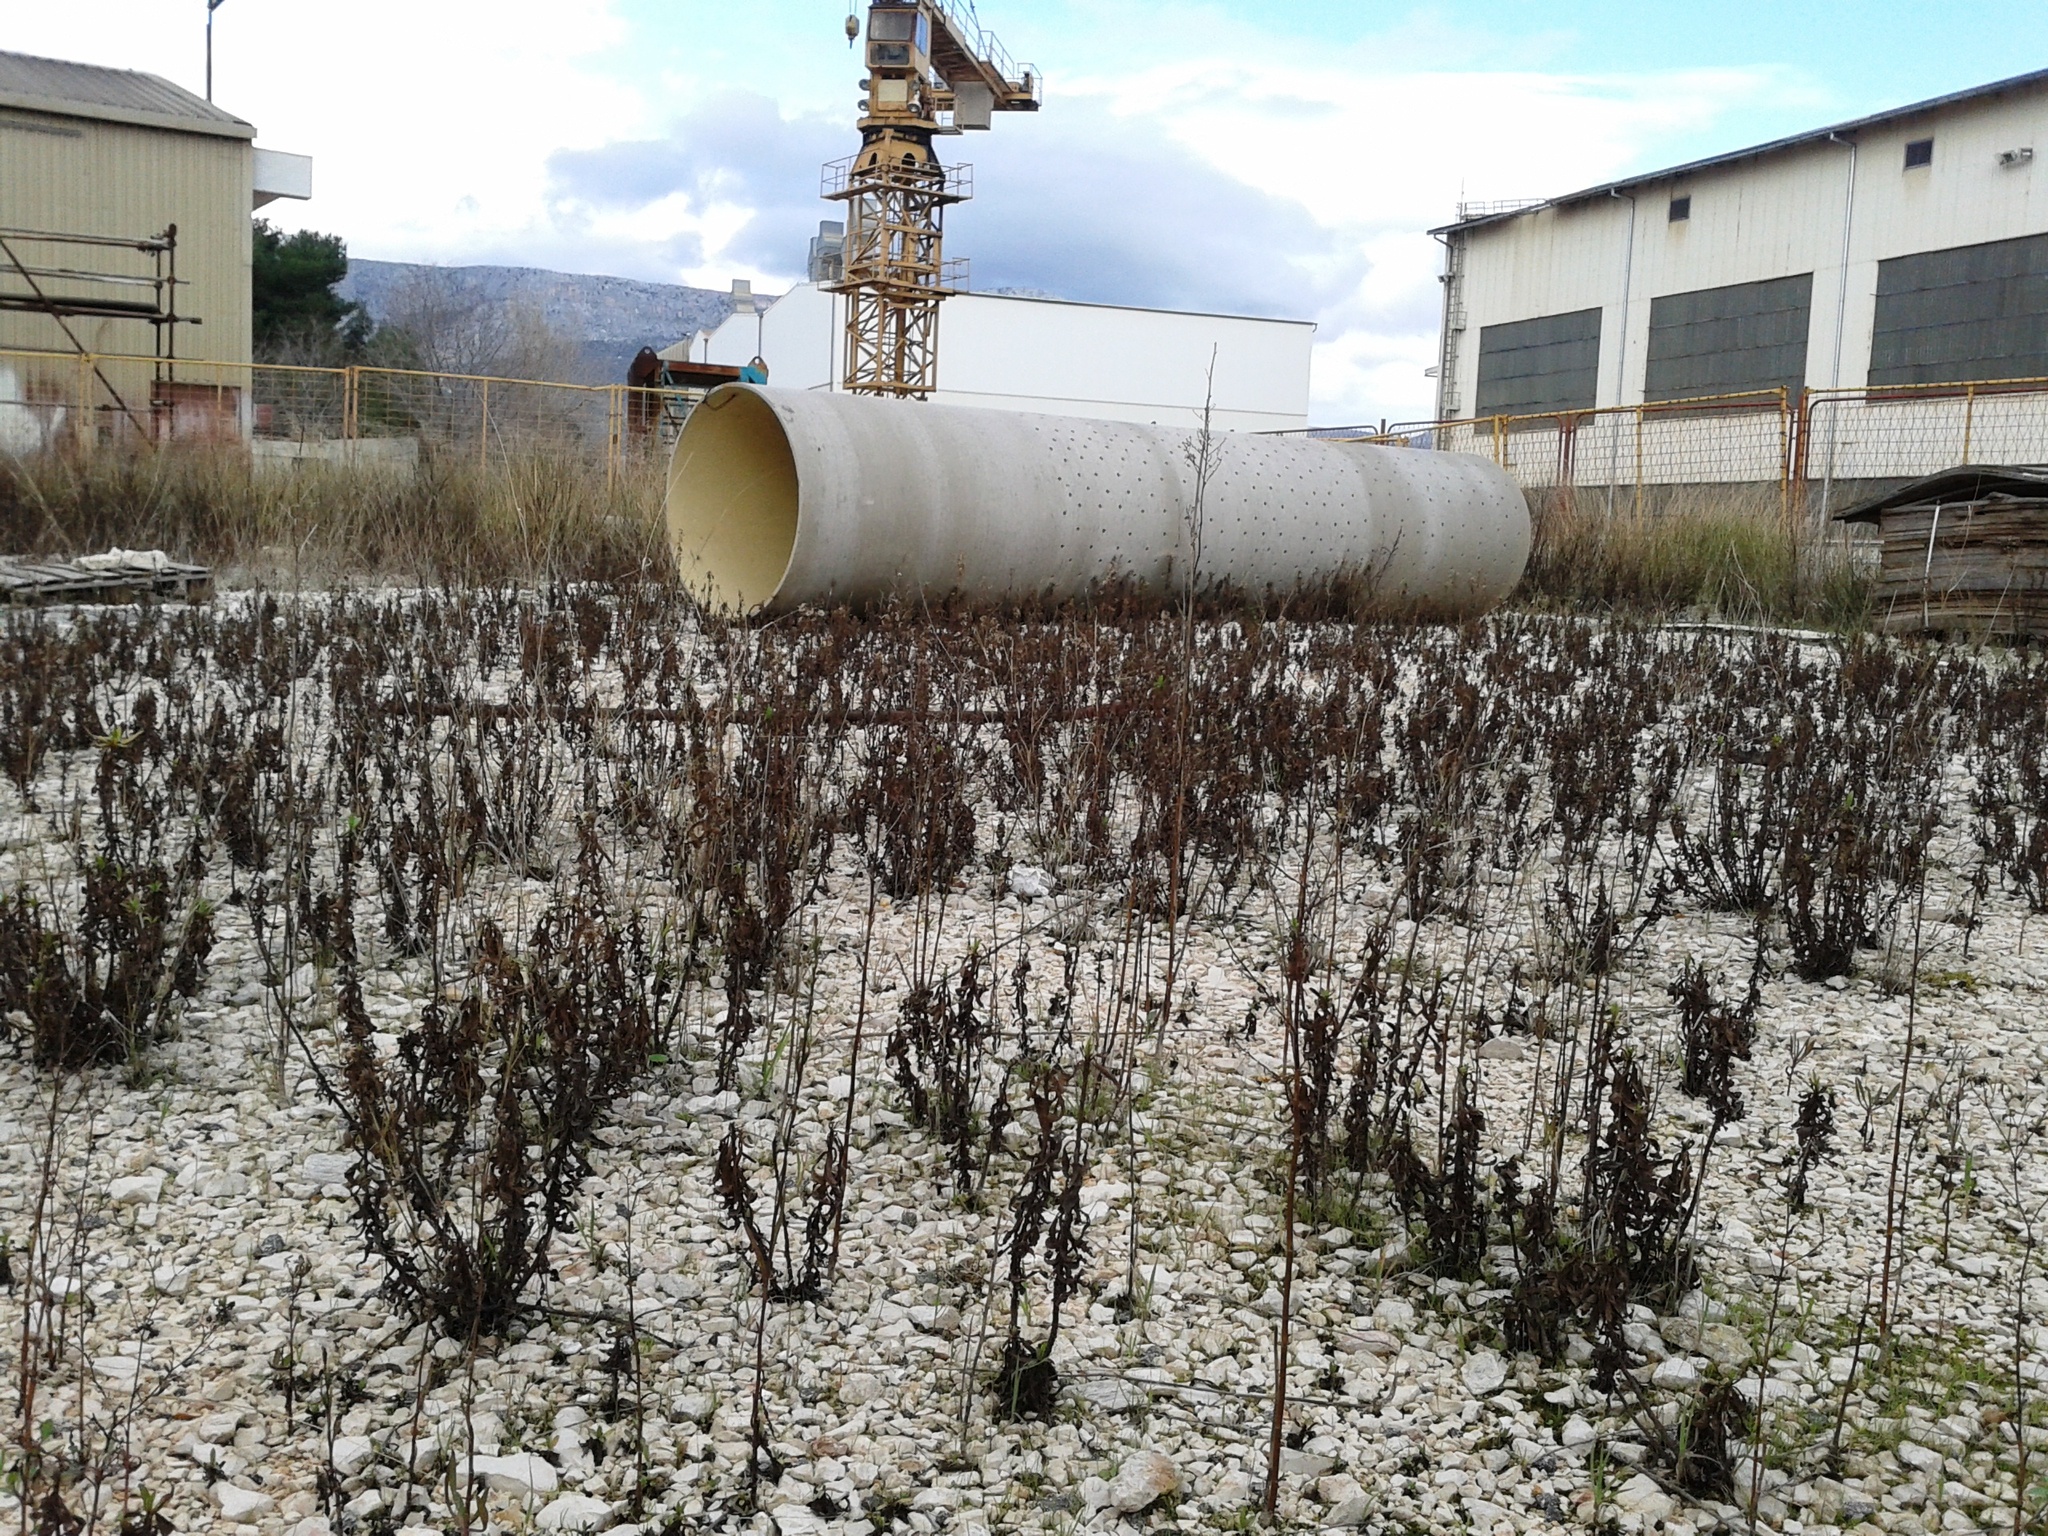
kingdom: Plantae
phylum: Tracheophyta
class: Magnoliopsida
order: Asterales
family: Asteraceae
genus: Dittrichia
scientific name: Dittrichia viscosa
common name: Woody fleabane
